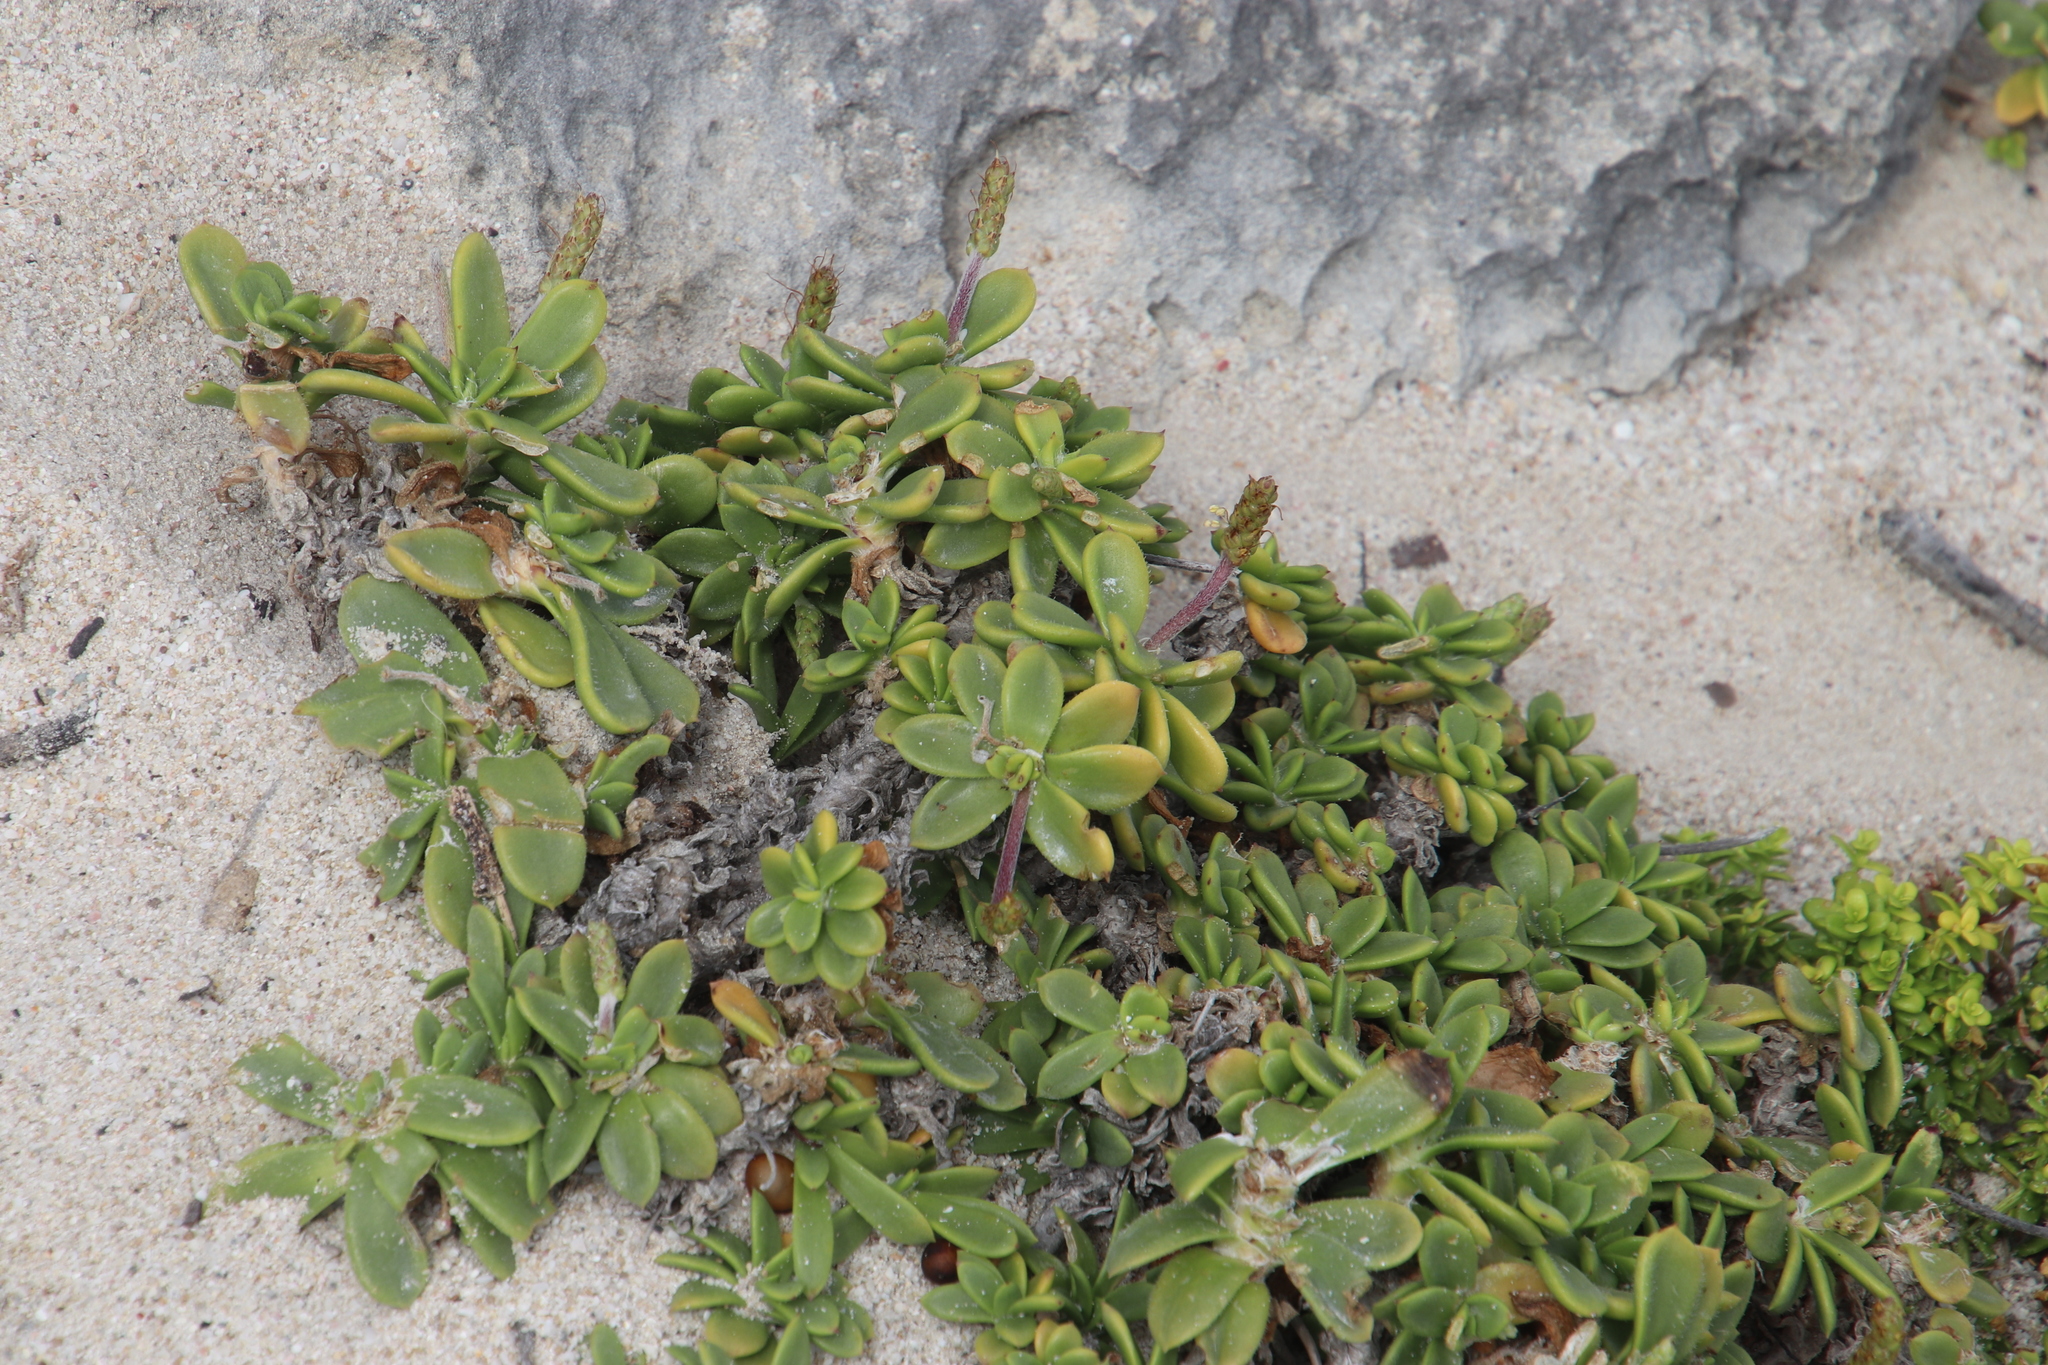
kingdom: Plantae
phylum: Tracheophyta
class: Magnoliopsida
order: Lamiales
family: Plantaginaceae
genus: Plantago
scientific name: Plantago carnosa
